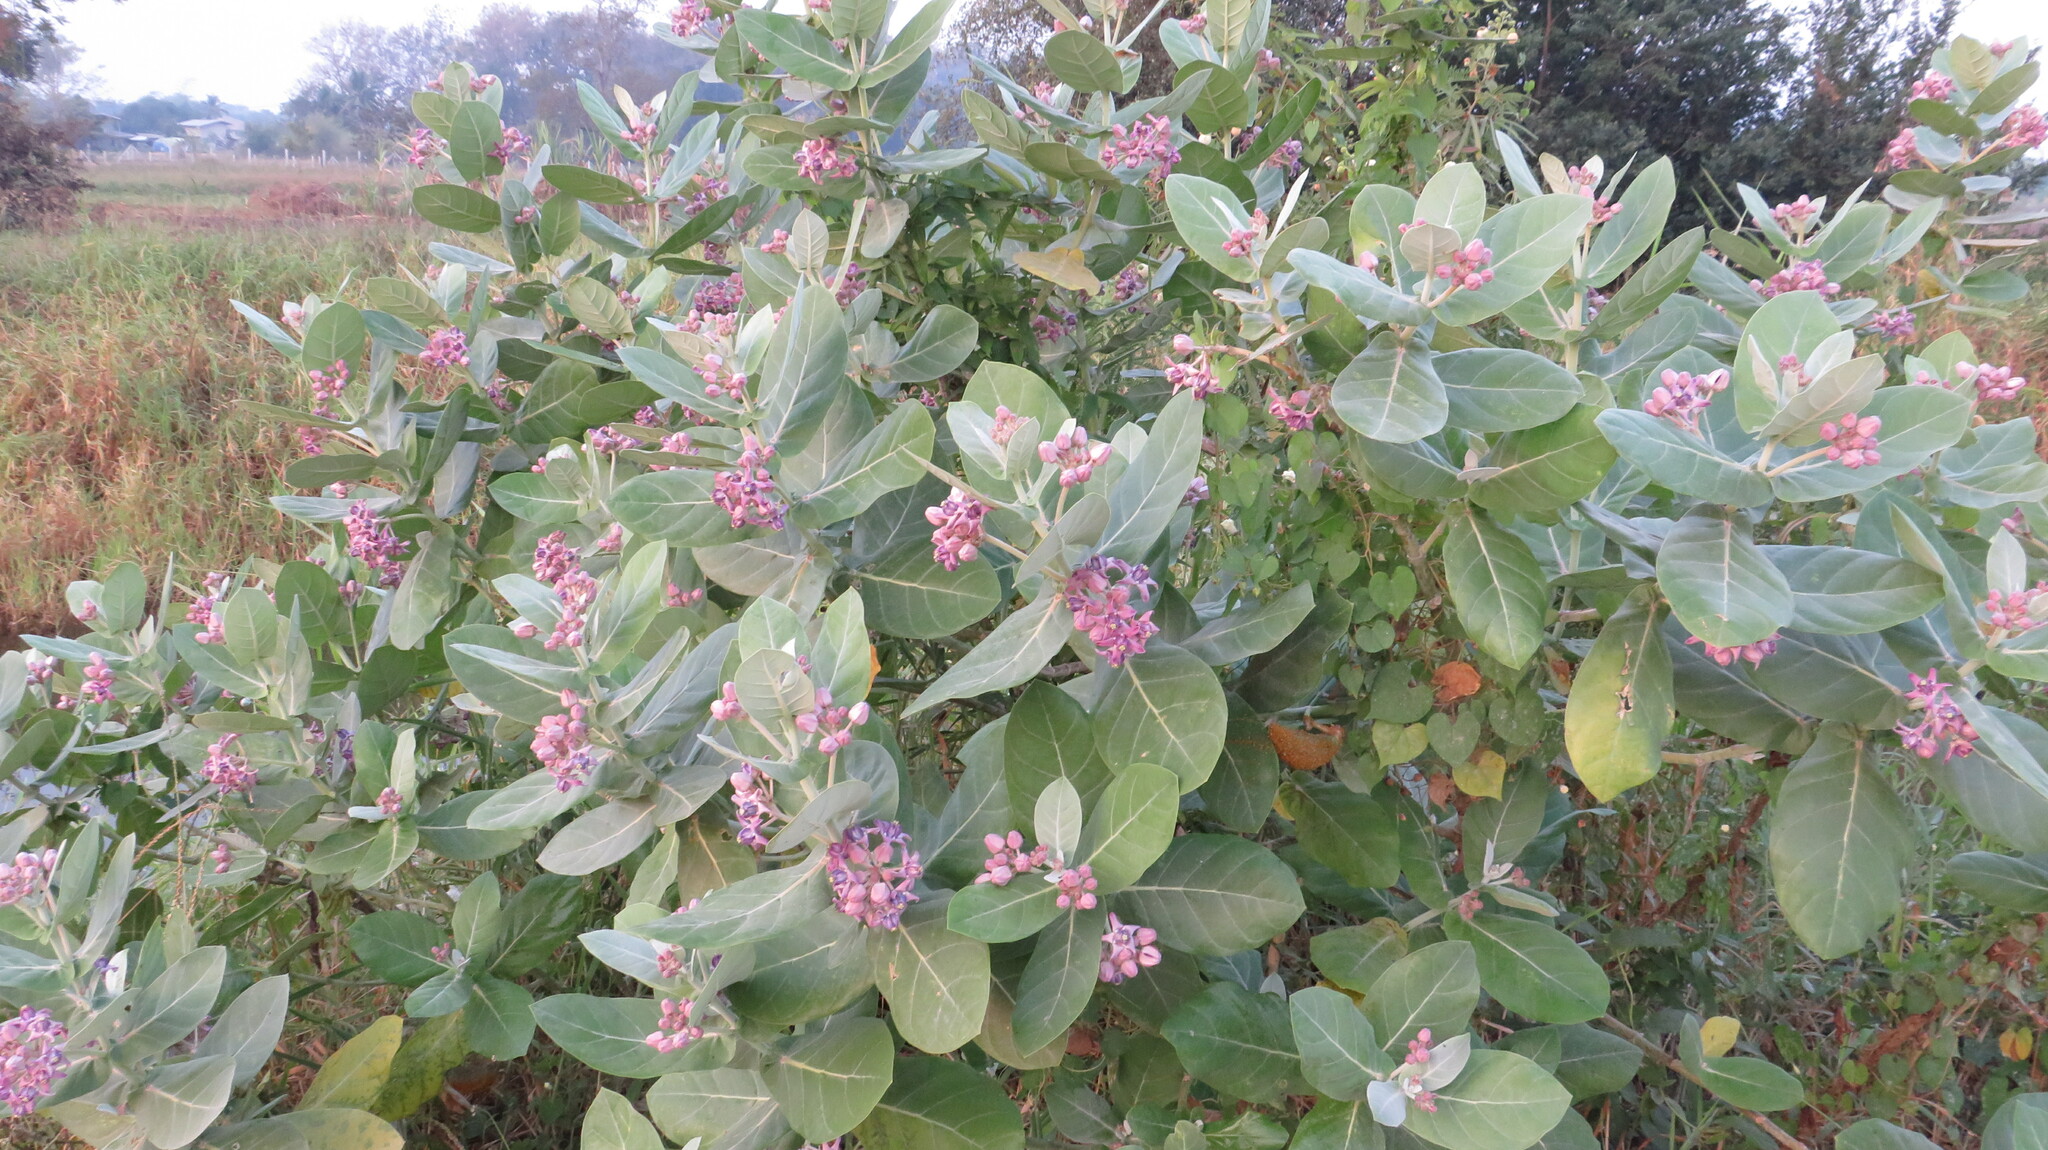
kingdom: Plantae
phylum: Tracheophyta
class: Magnoliopsida
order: Gentianales
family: Apocynaceae
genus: Calotropis
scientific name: Calotropis gigantea
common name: Crown flower
